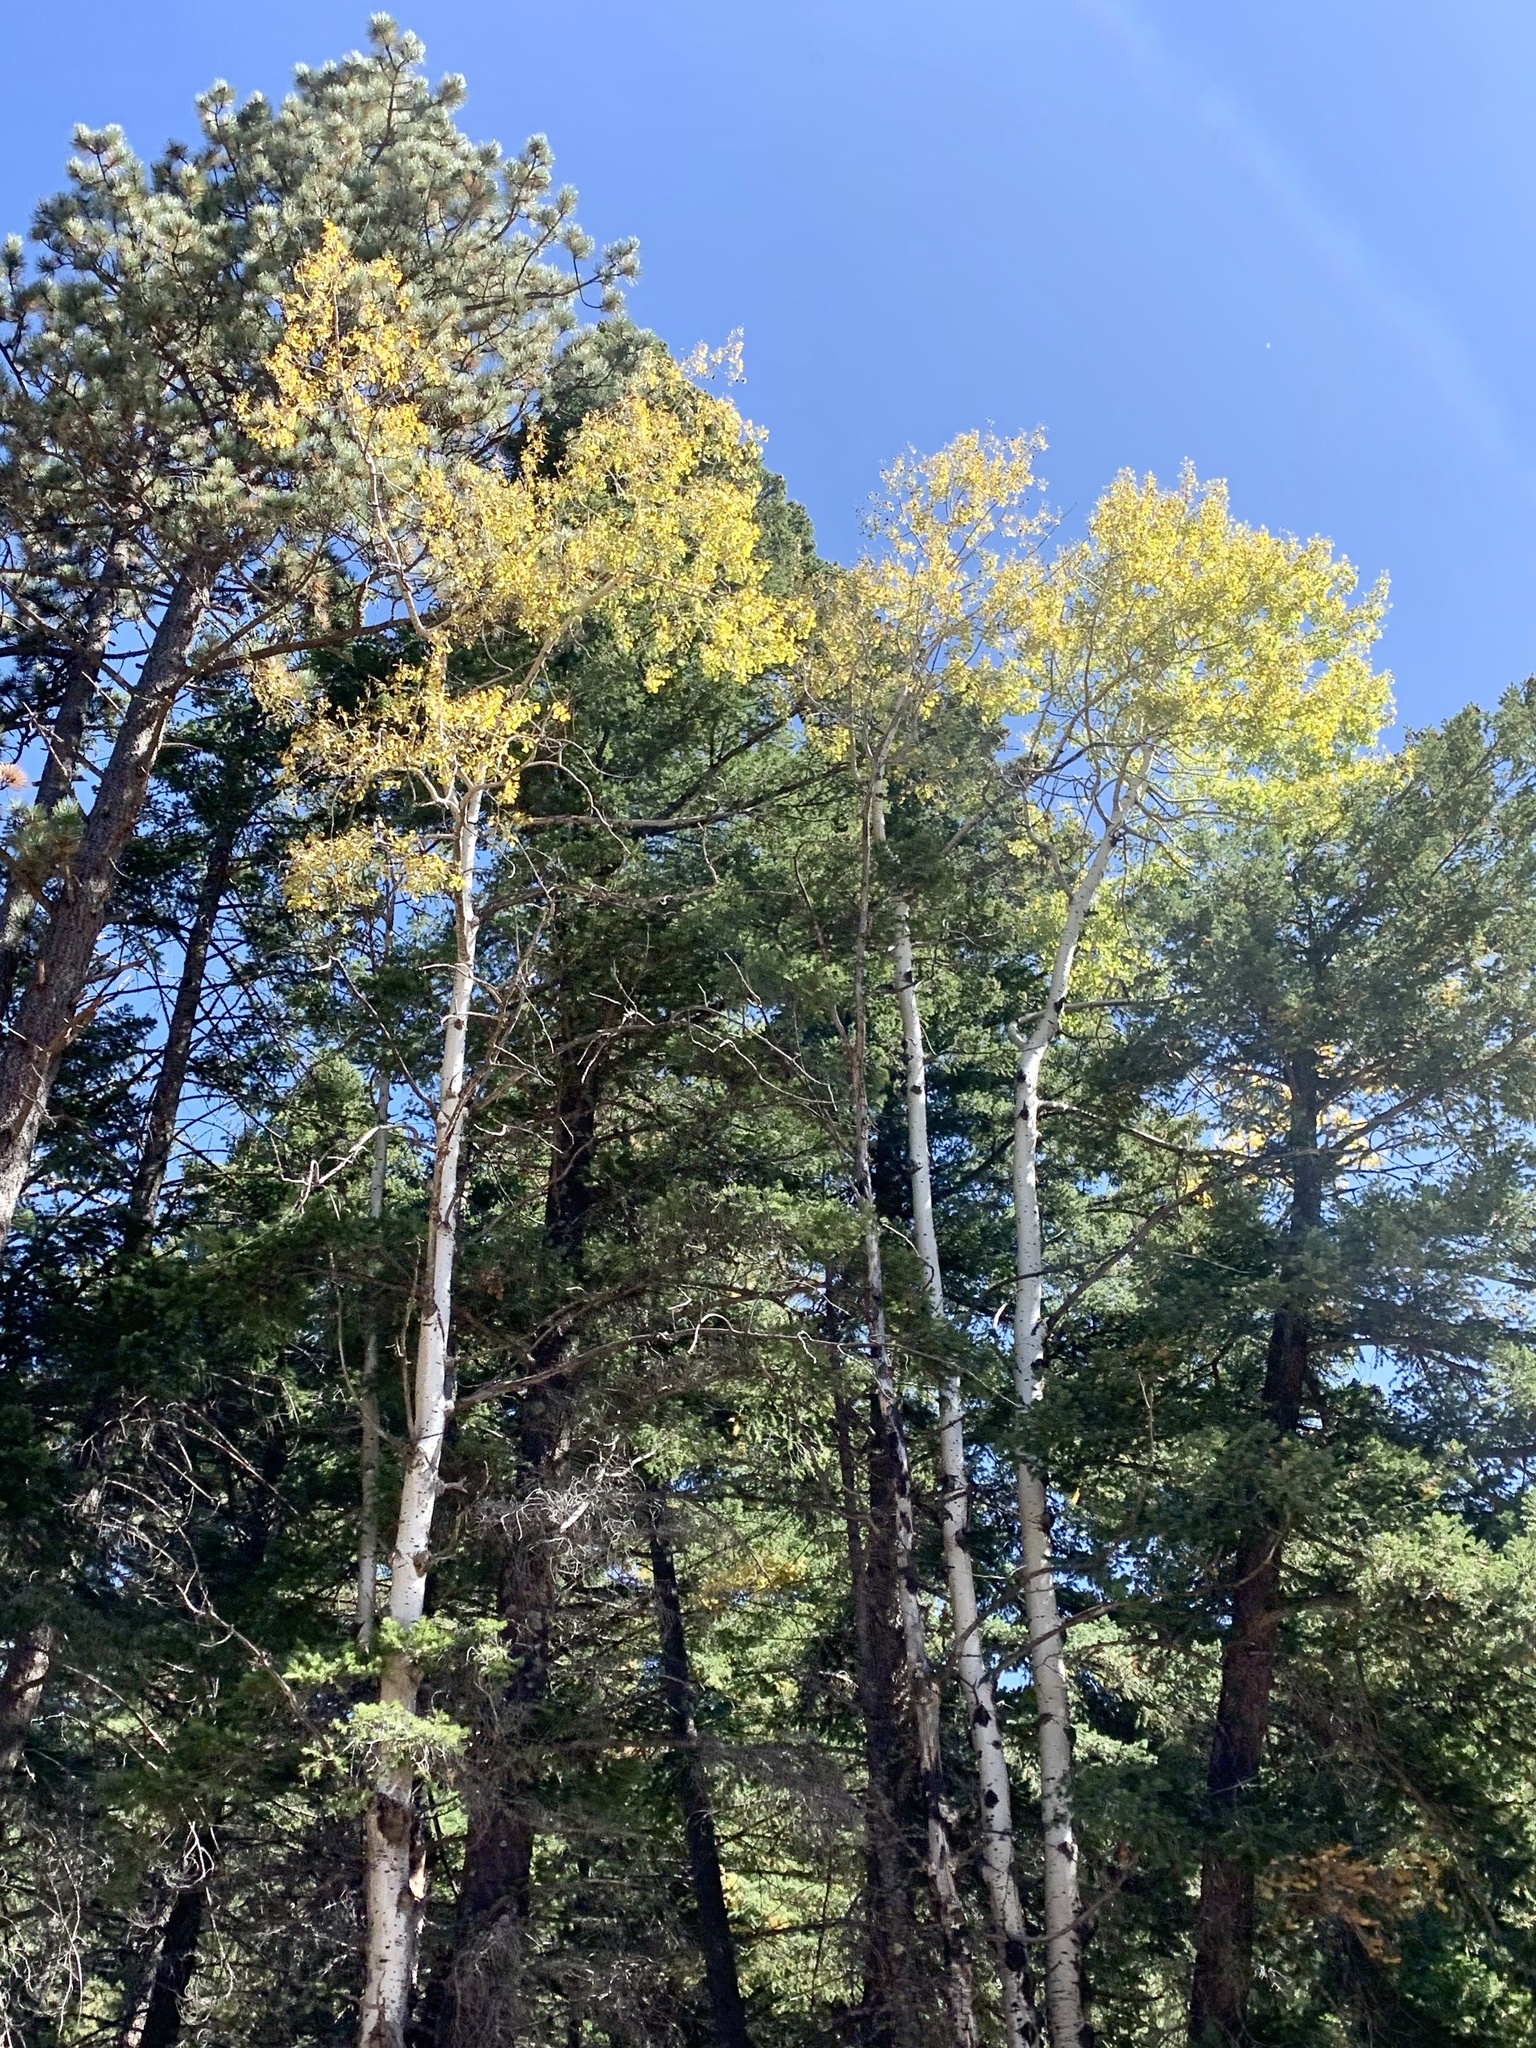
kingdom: Plantae
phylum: Tracheophyta
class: Magnoliopsida
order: Malpighiales
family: Salicaceae
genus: Populus
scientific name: Populus tremuloides
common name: Quaking aspen
